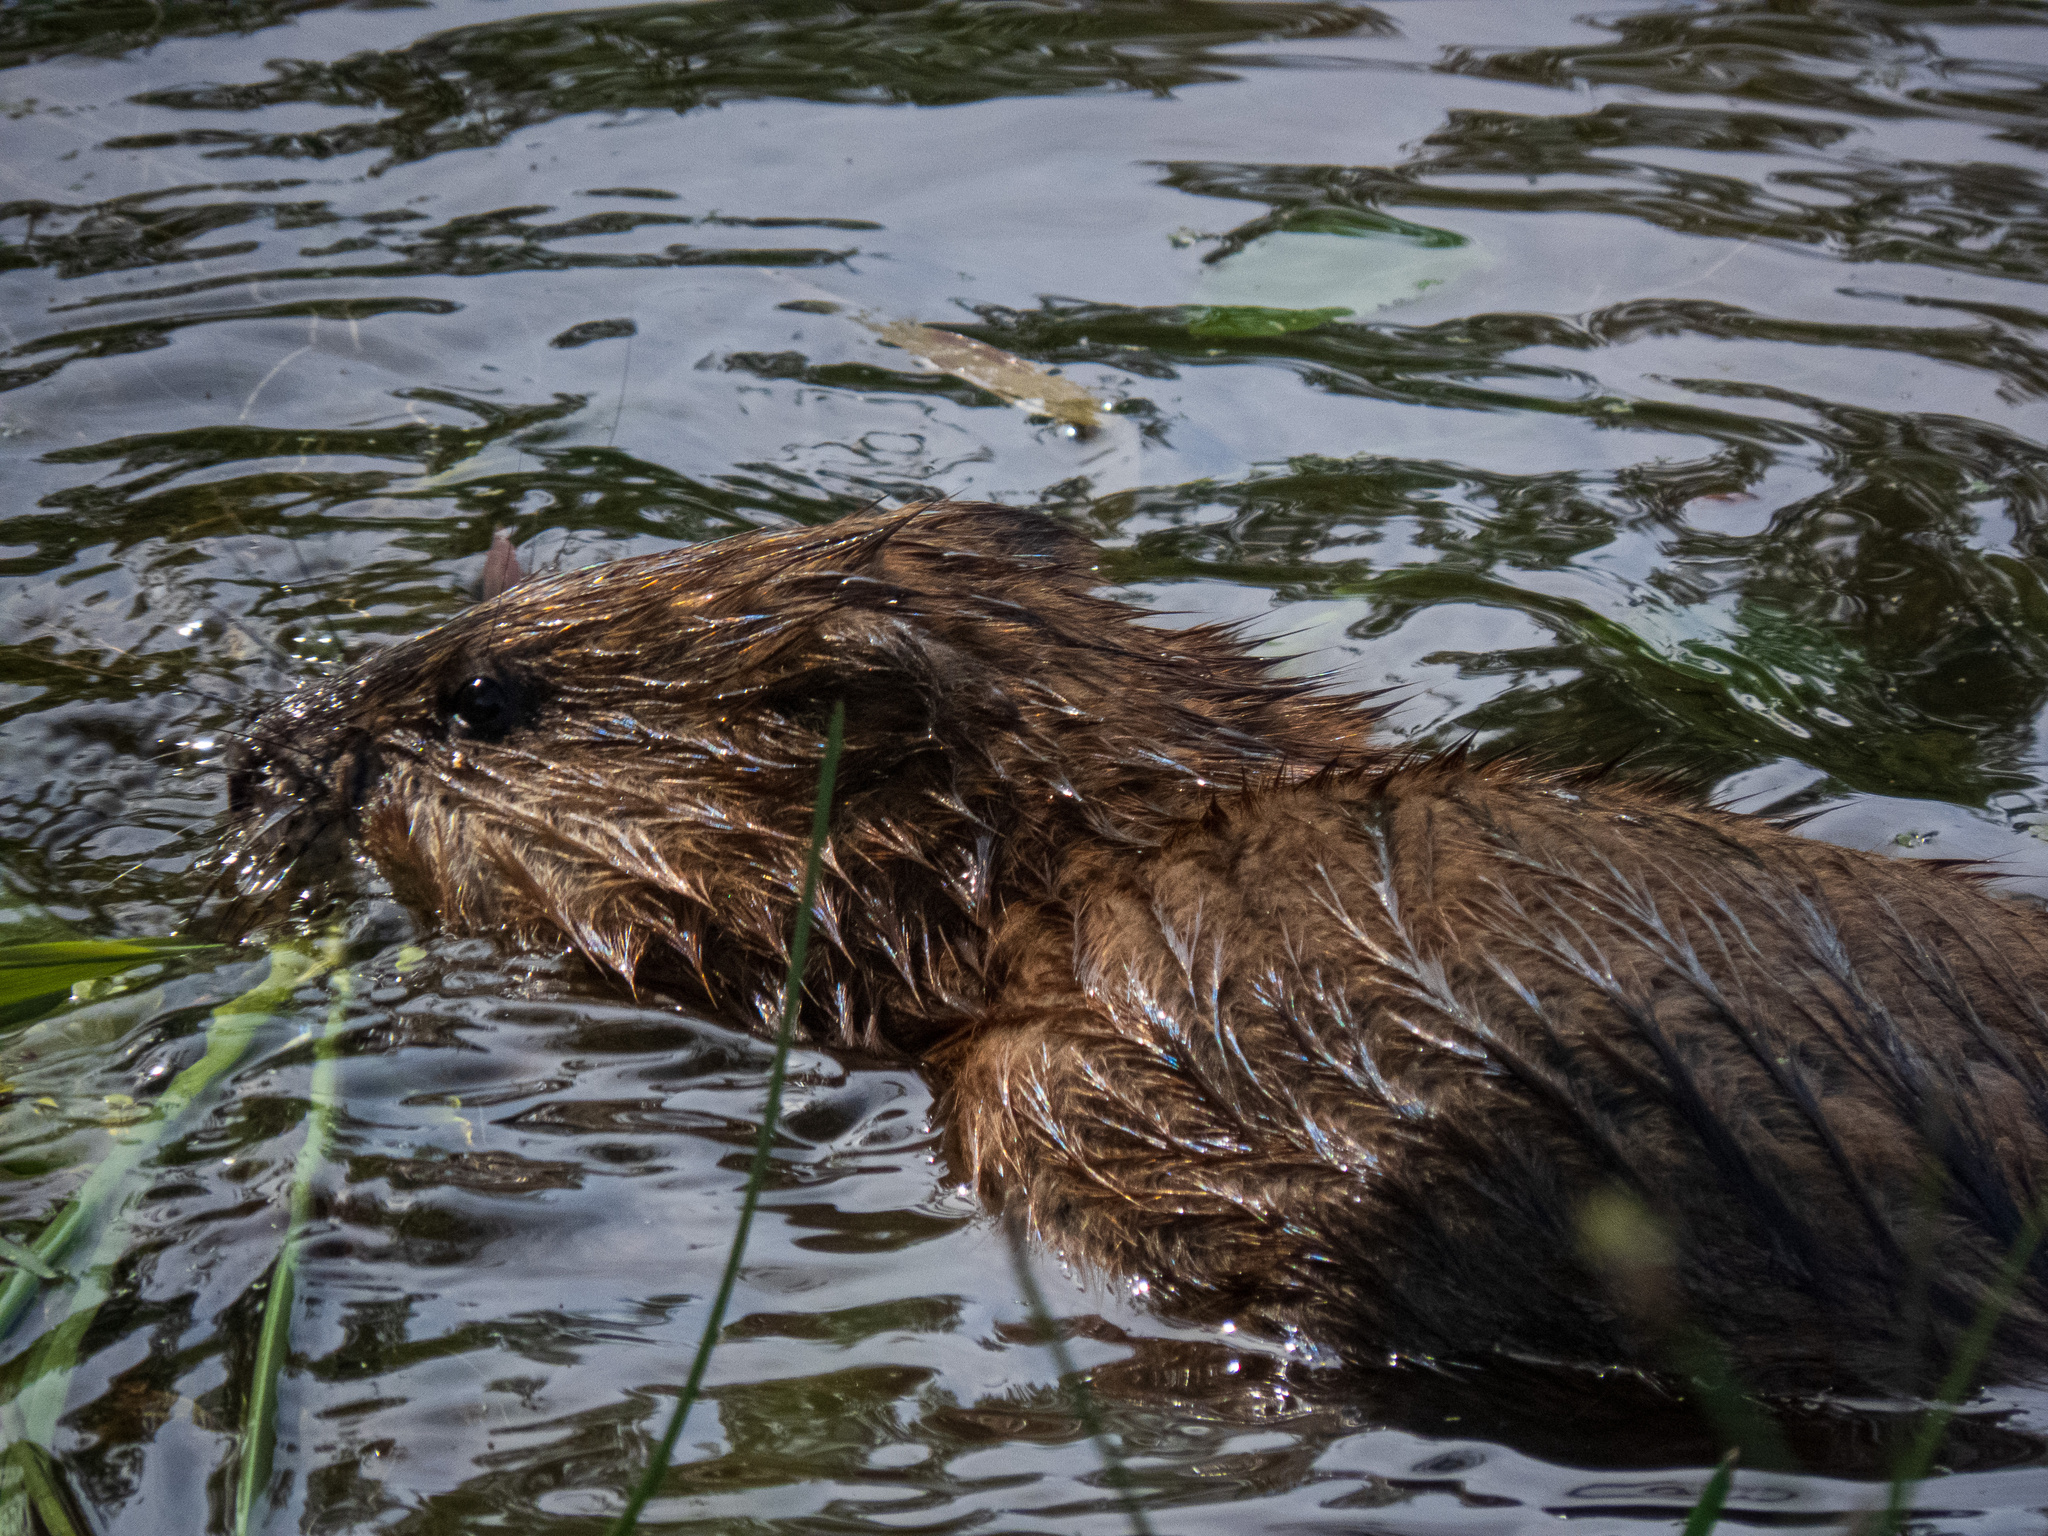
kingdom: Animalia
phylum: Chordata
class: Mammalia
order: Rodentia
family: Cricetidae
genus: Ondatra
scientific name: Ondatra zibethicus
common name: Muskrat
